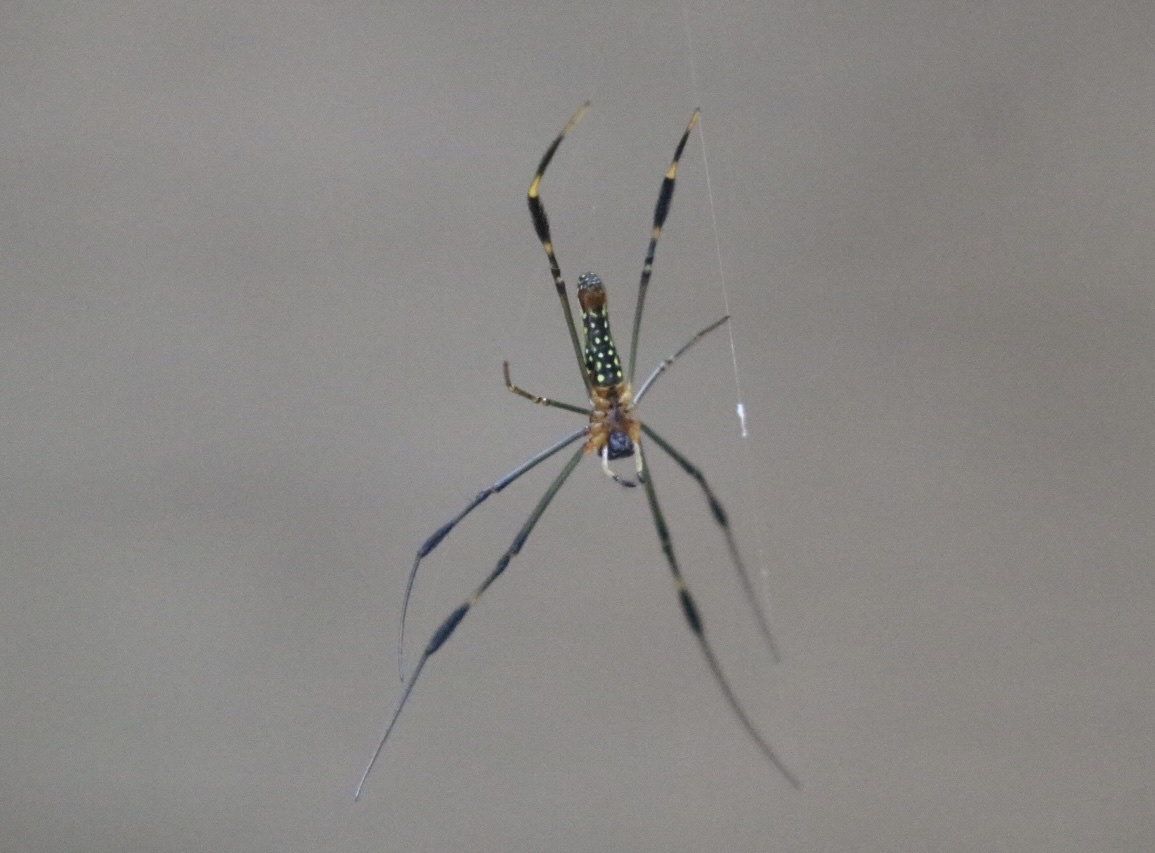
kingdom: Animalia
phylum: Arthropoda
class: Arachnida
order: Araneae
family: Araneidae
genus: Nephila
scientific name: Nephila pilipes
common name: Giant golden orb weaver
